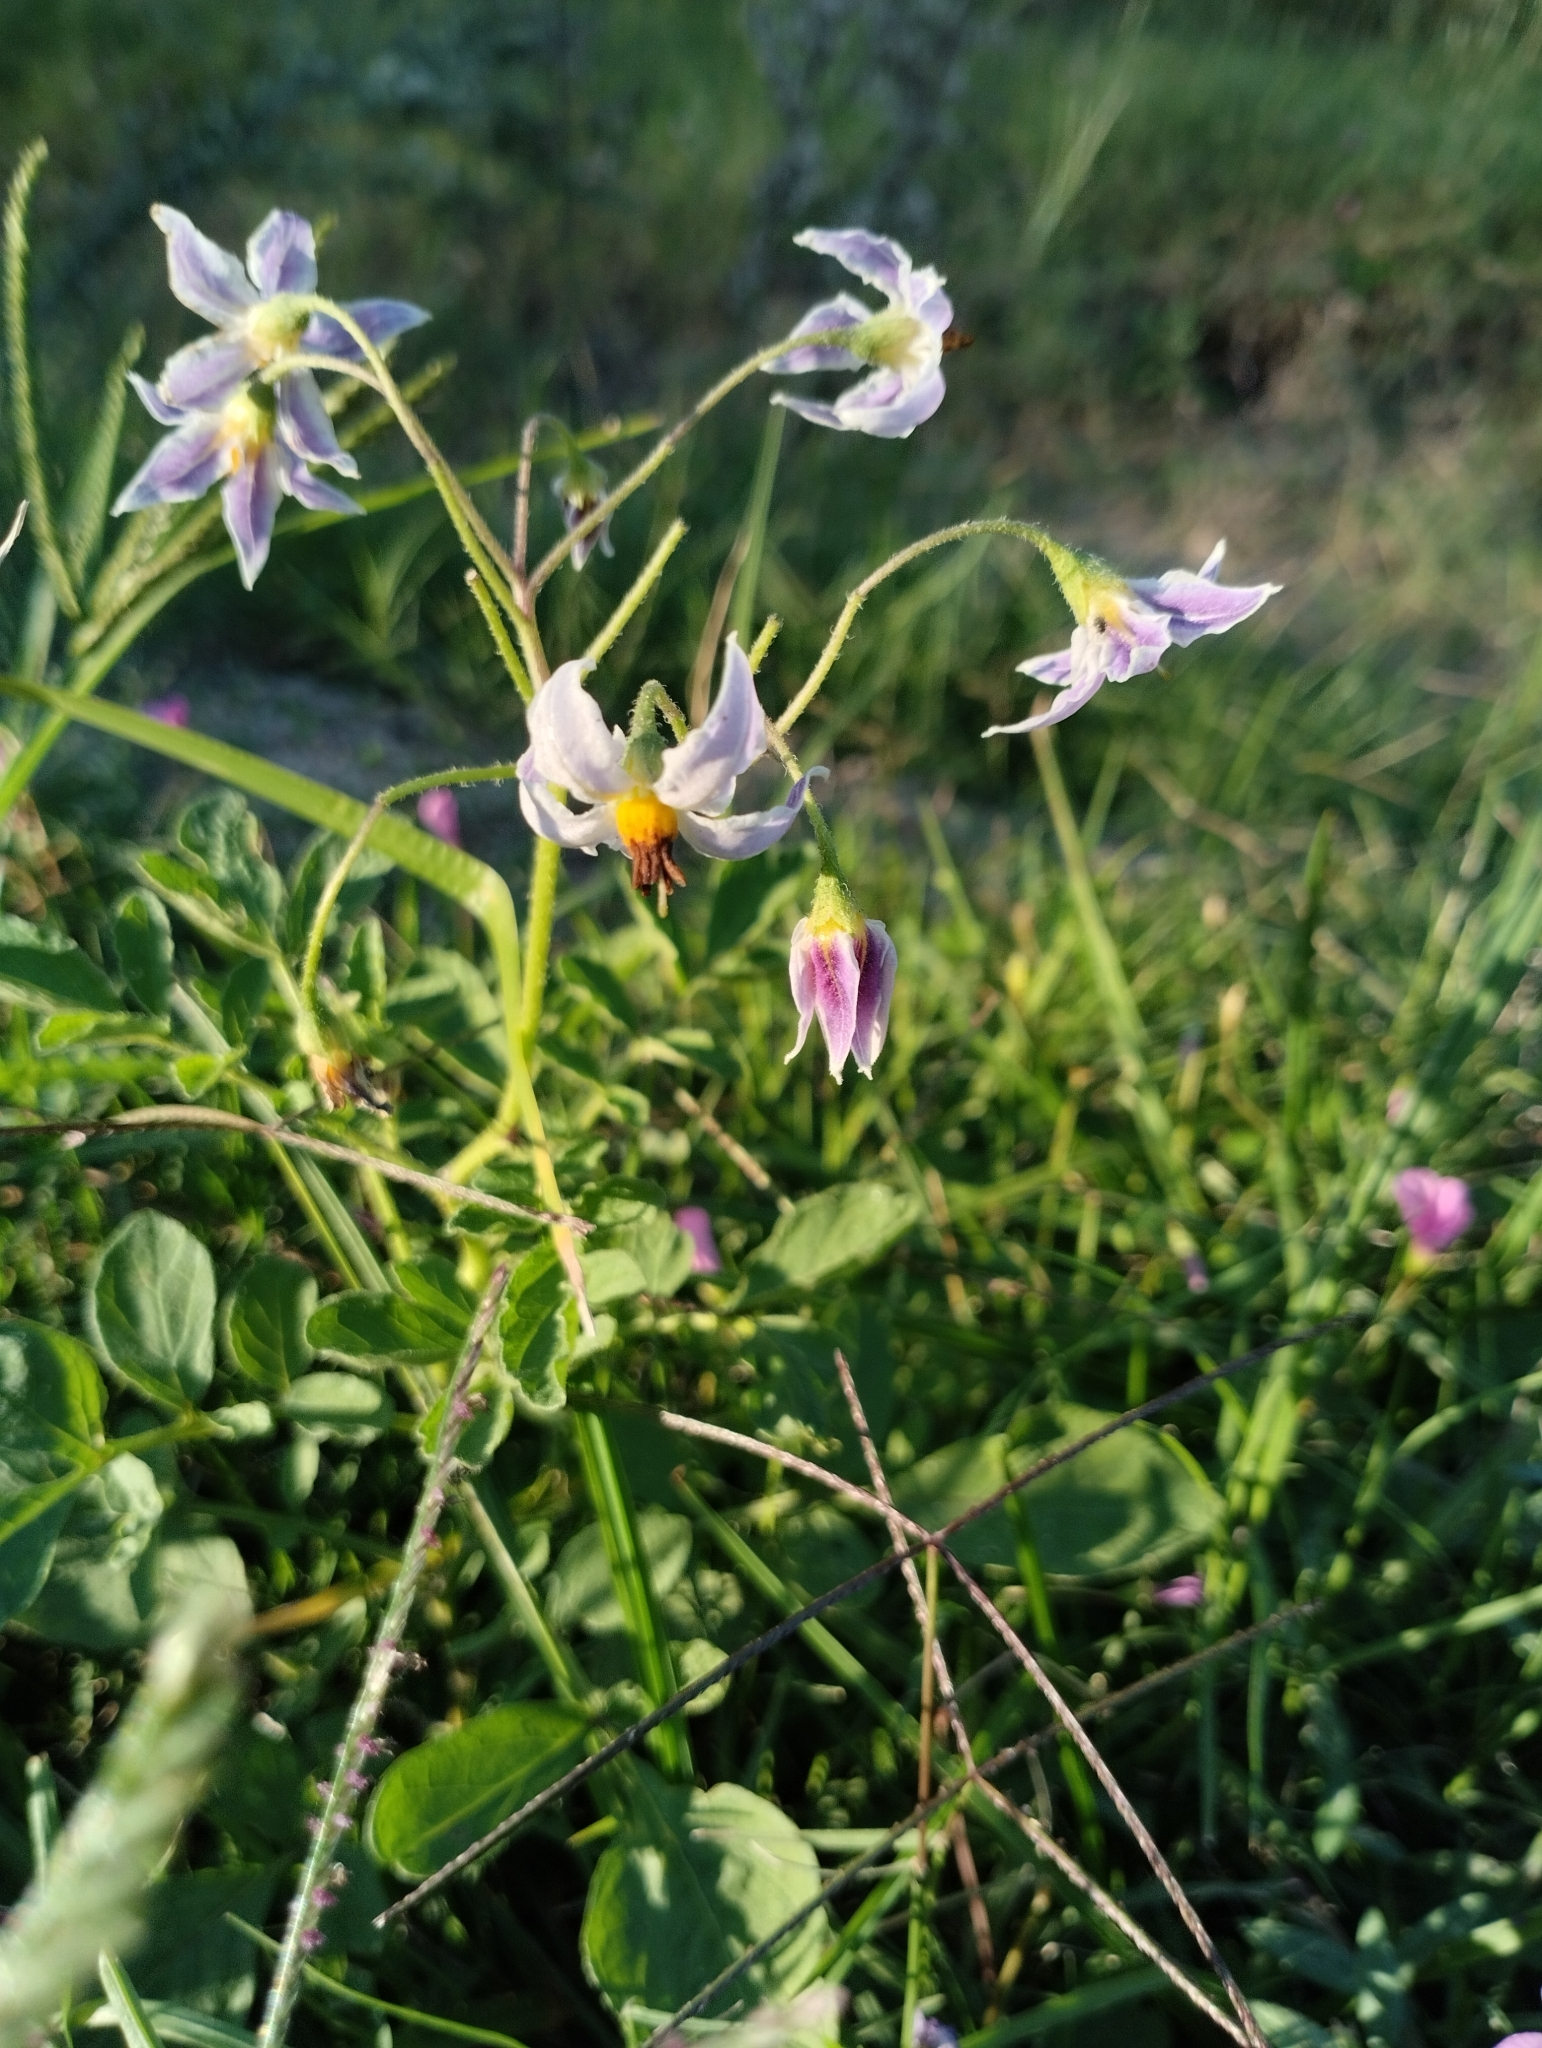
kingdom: Plantae
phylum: Tracheophyta
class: Magnoliopsida
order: Solanales
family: Solanaceae
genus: Solanum
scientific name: Solanum commersonii
